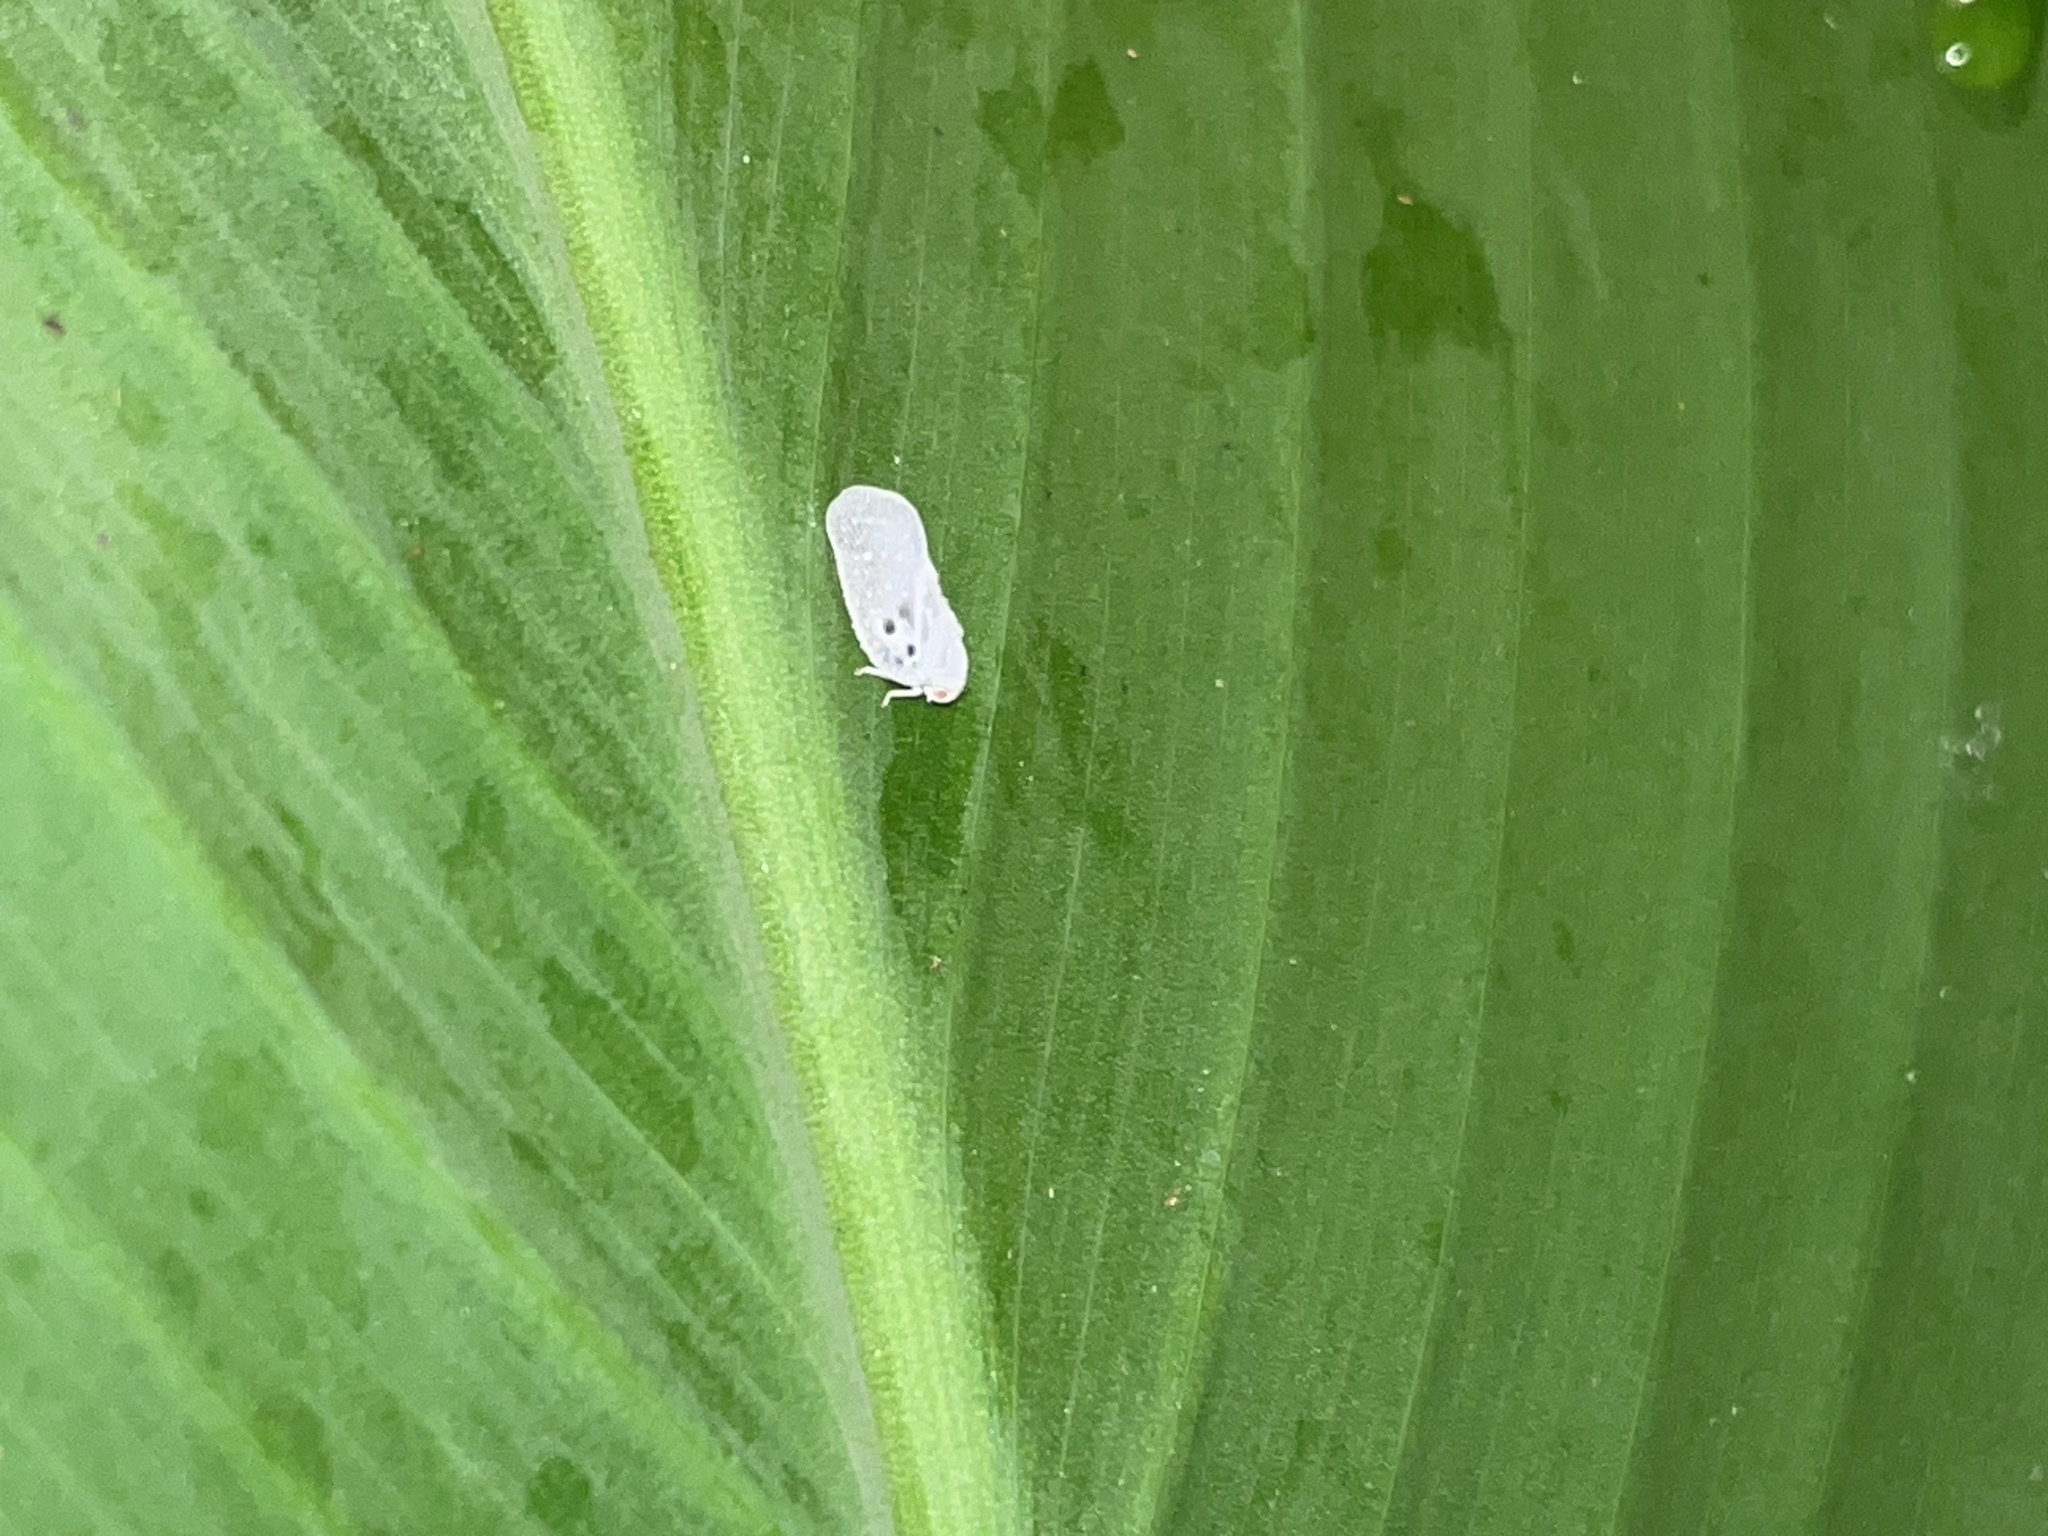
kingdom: Animalia
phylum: Arthropoda
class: Insecta
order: Hemiptera
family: Flatidae
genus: Metcalfa
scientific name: Metcalfa pruinosa
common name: Citrus flatid planthopper
